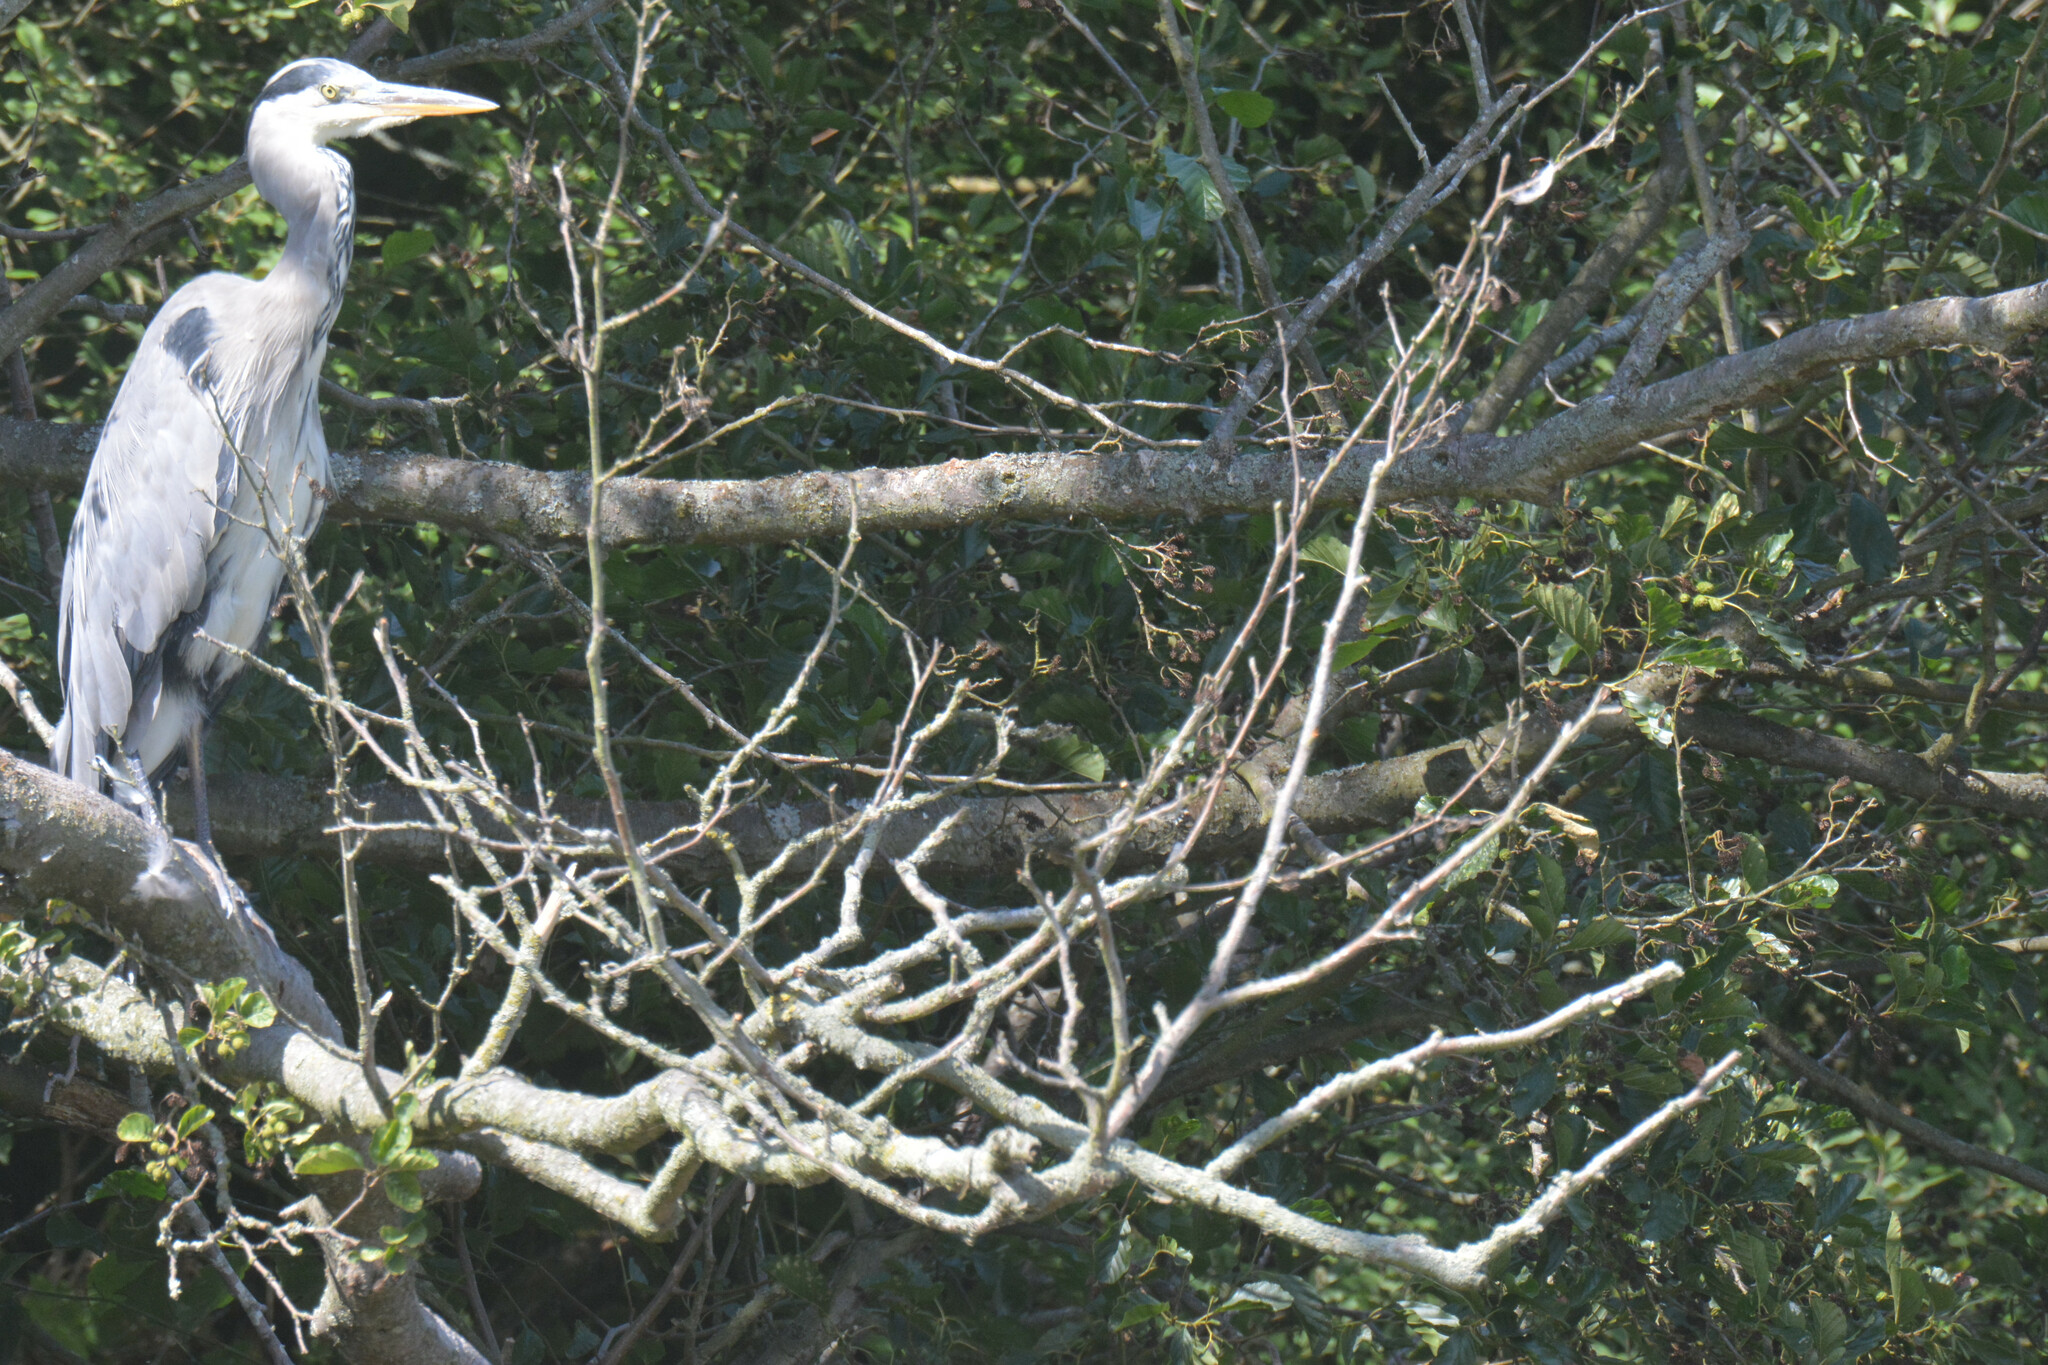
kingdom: Animalia
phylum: Chordata
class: Aves
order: Pelecaniformes
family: Ardeidae
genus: Ardea
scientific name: Ardea cinerea
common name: Grey heron
